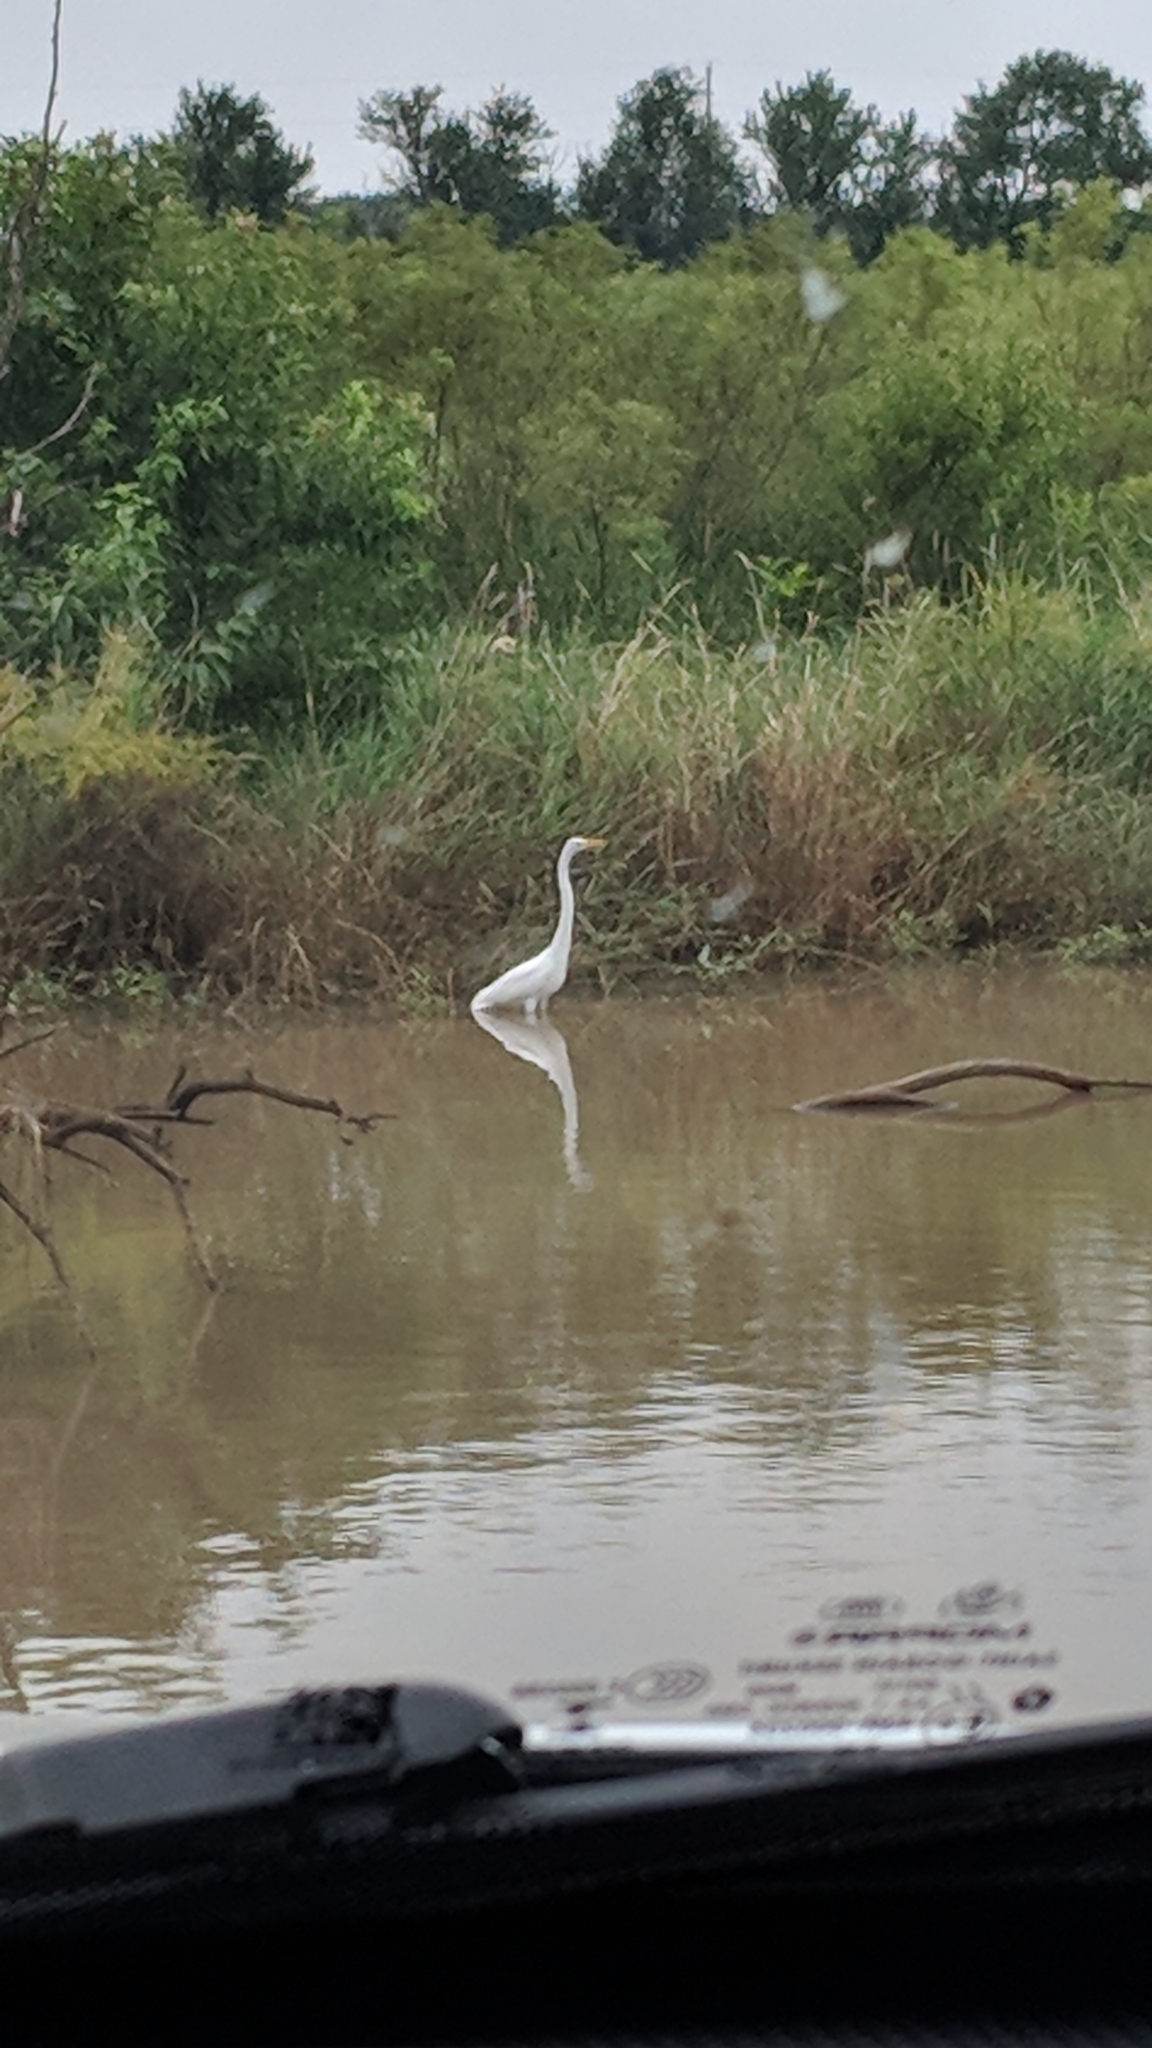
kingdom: Animalia
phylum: Chordata
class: Aves
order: Pelecaniformes
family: Ardeidae
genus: Ardea
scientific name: Ardea alba
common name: Great egret
